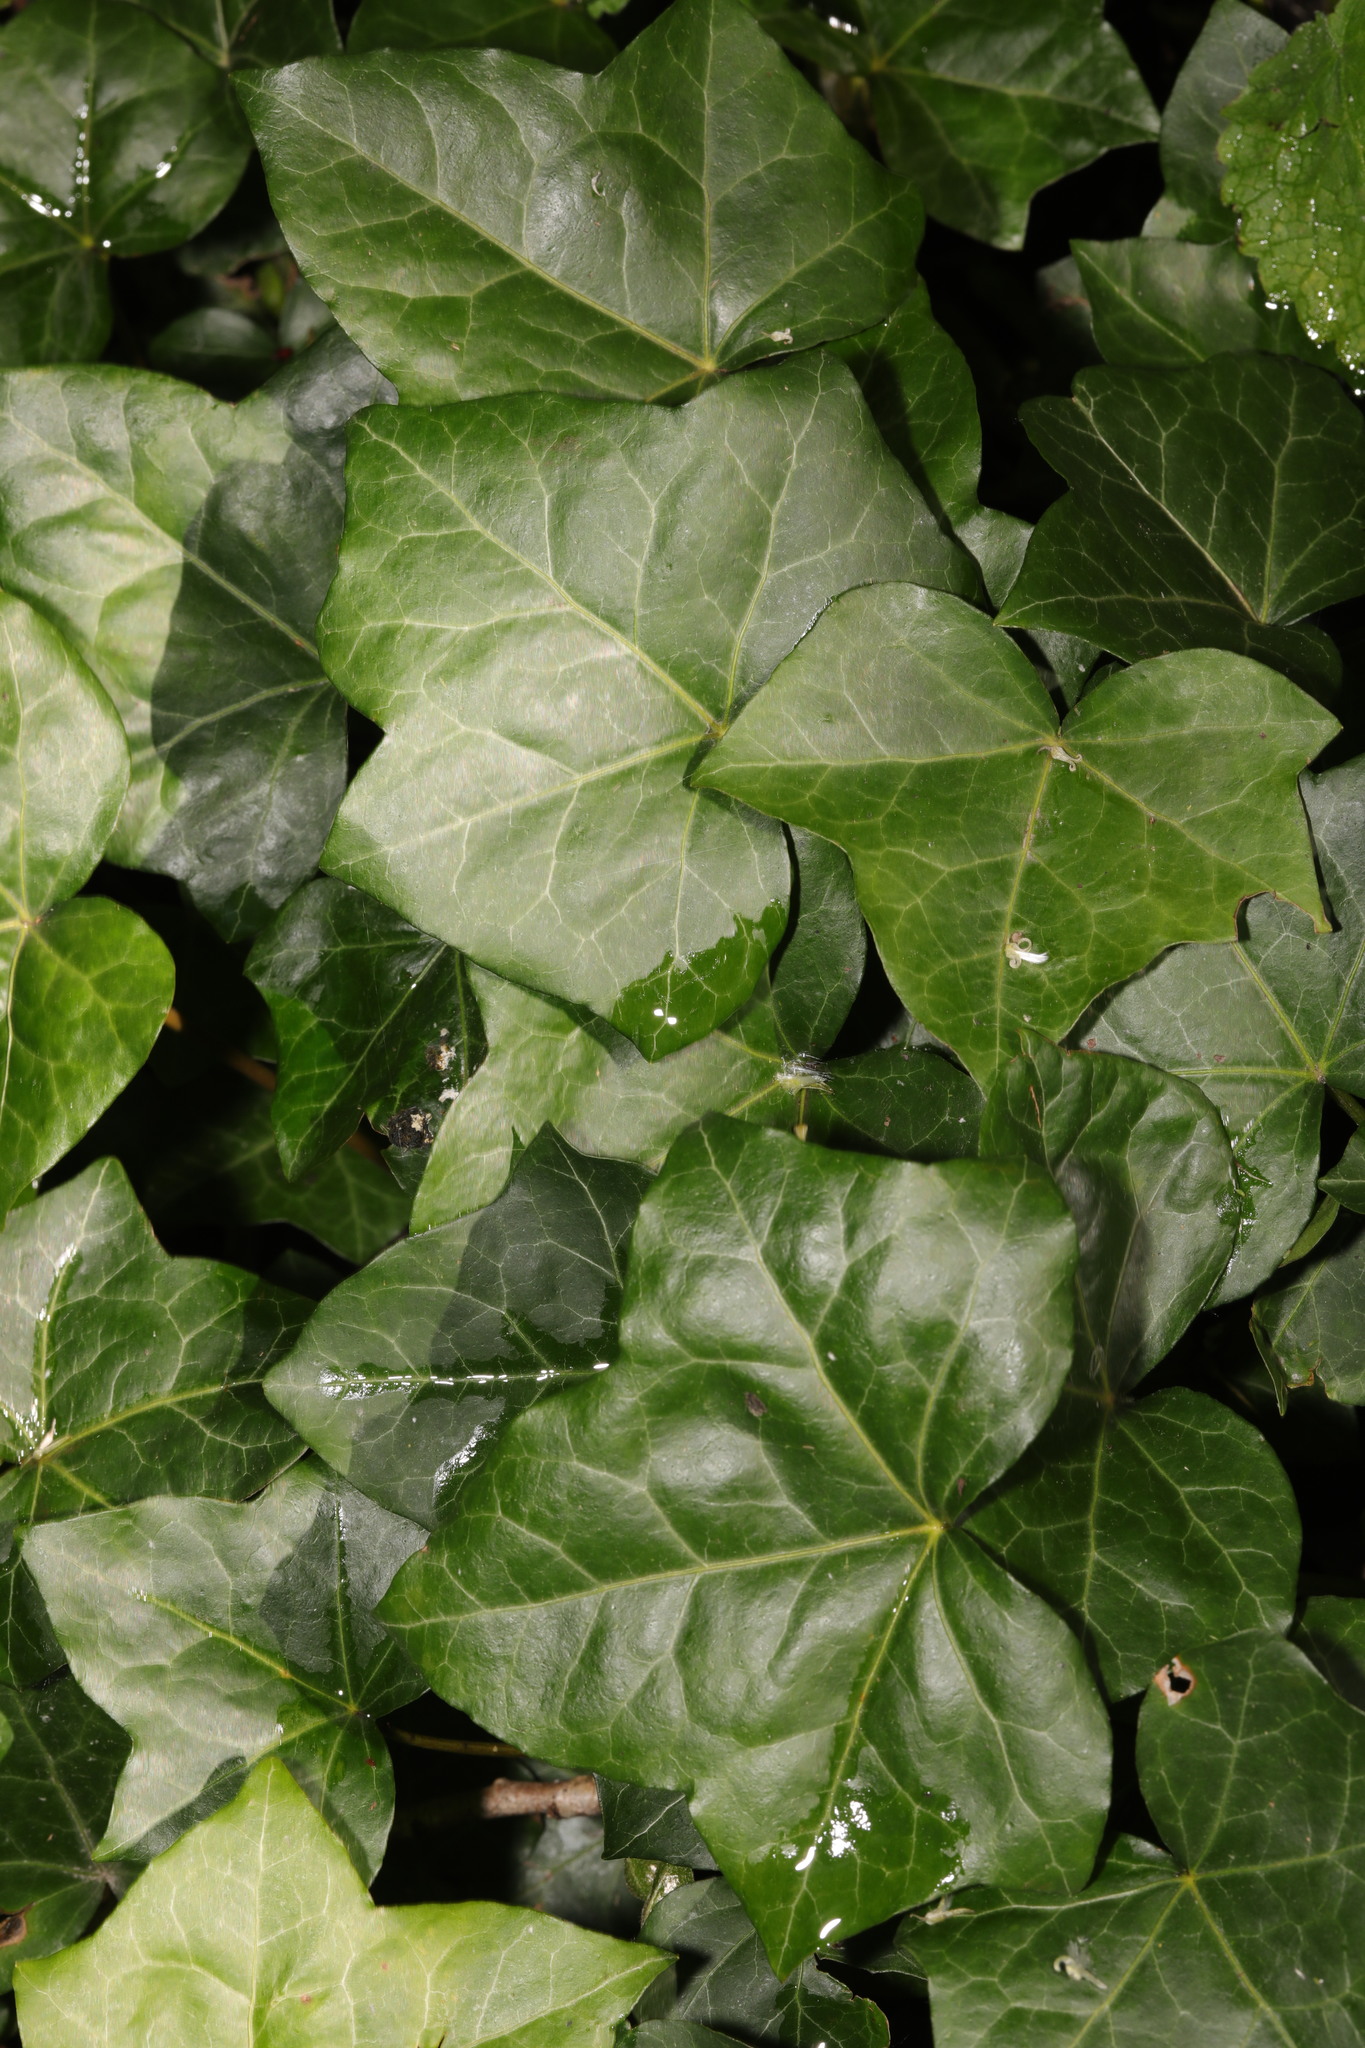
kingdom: Plantae
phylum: Tracheophyta
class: Magnoliopsida
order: Apiales
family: Araliaceae
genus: Hedera
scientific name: Hedera helix
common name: Ivy
